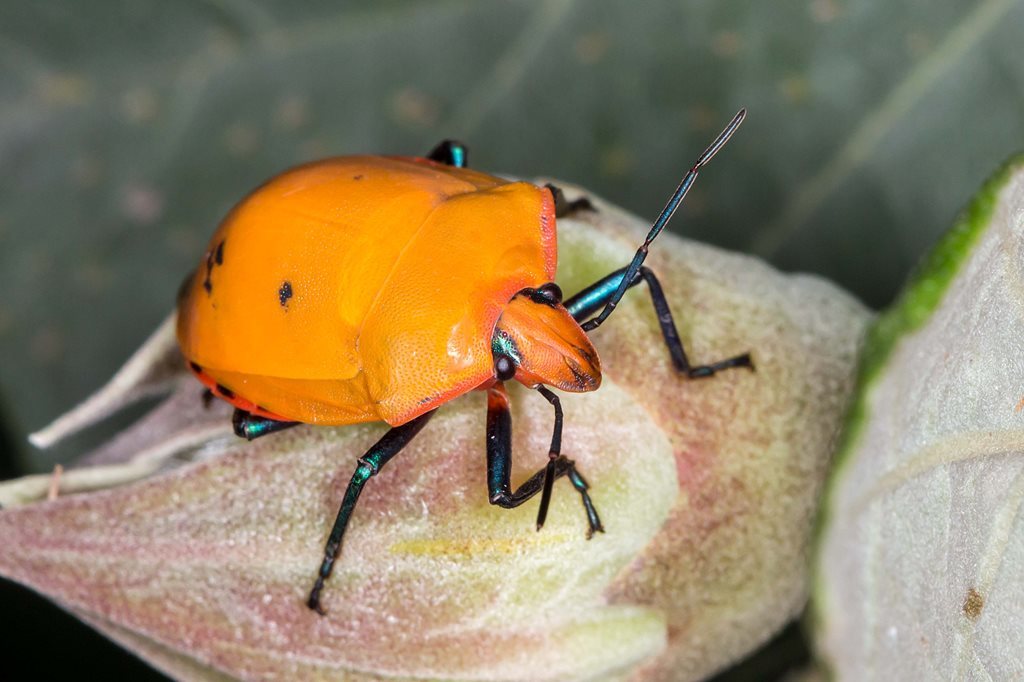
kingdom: Animalia
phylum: Arthropoda
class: Insecta
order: Hemiptera
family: Scutelleridae
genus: Tectocoris
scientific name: Tectocoris diophthalmus
